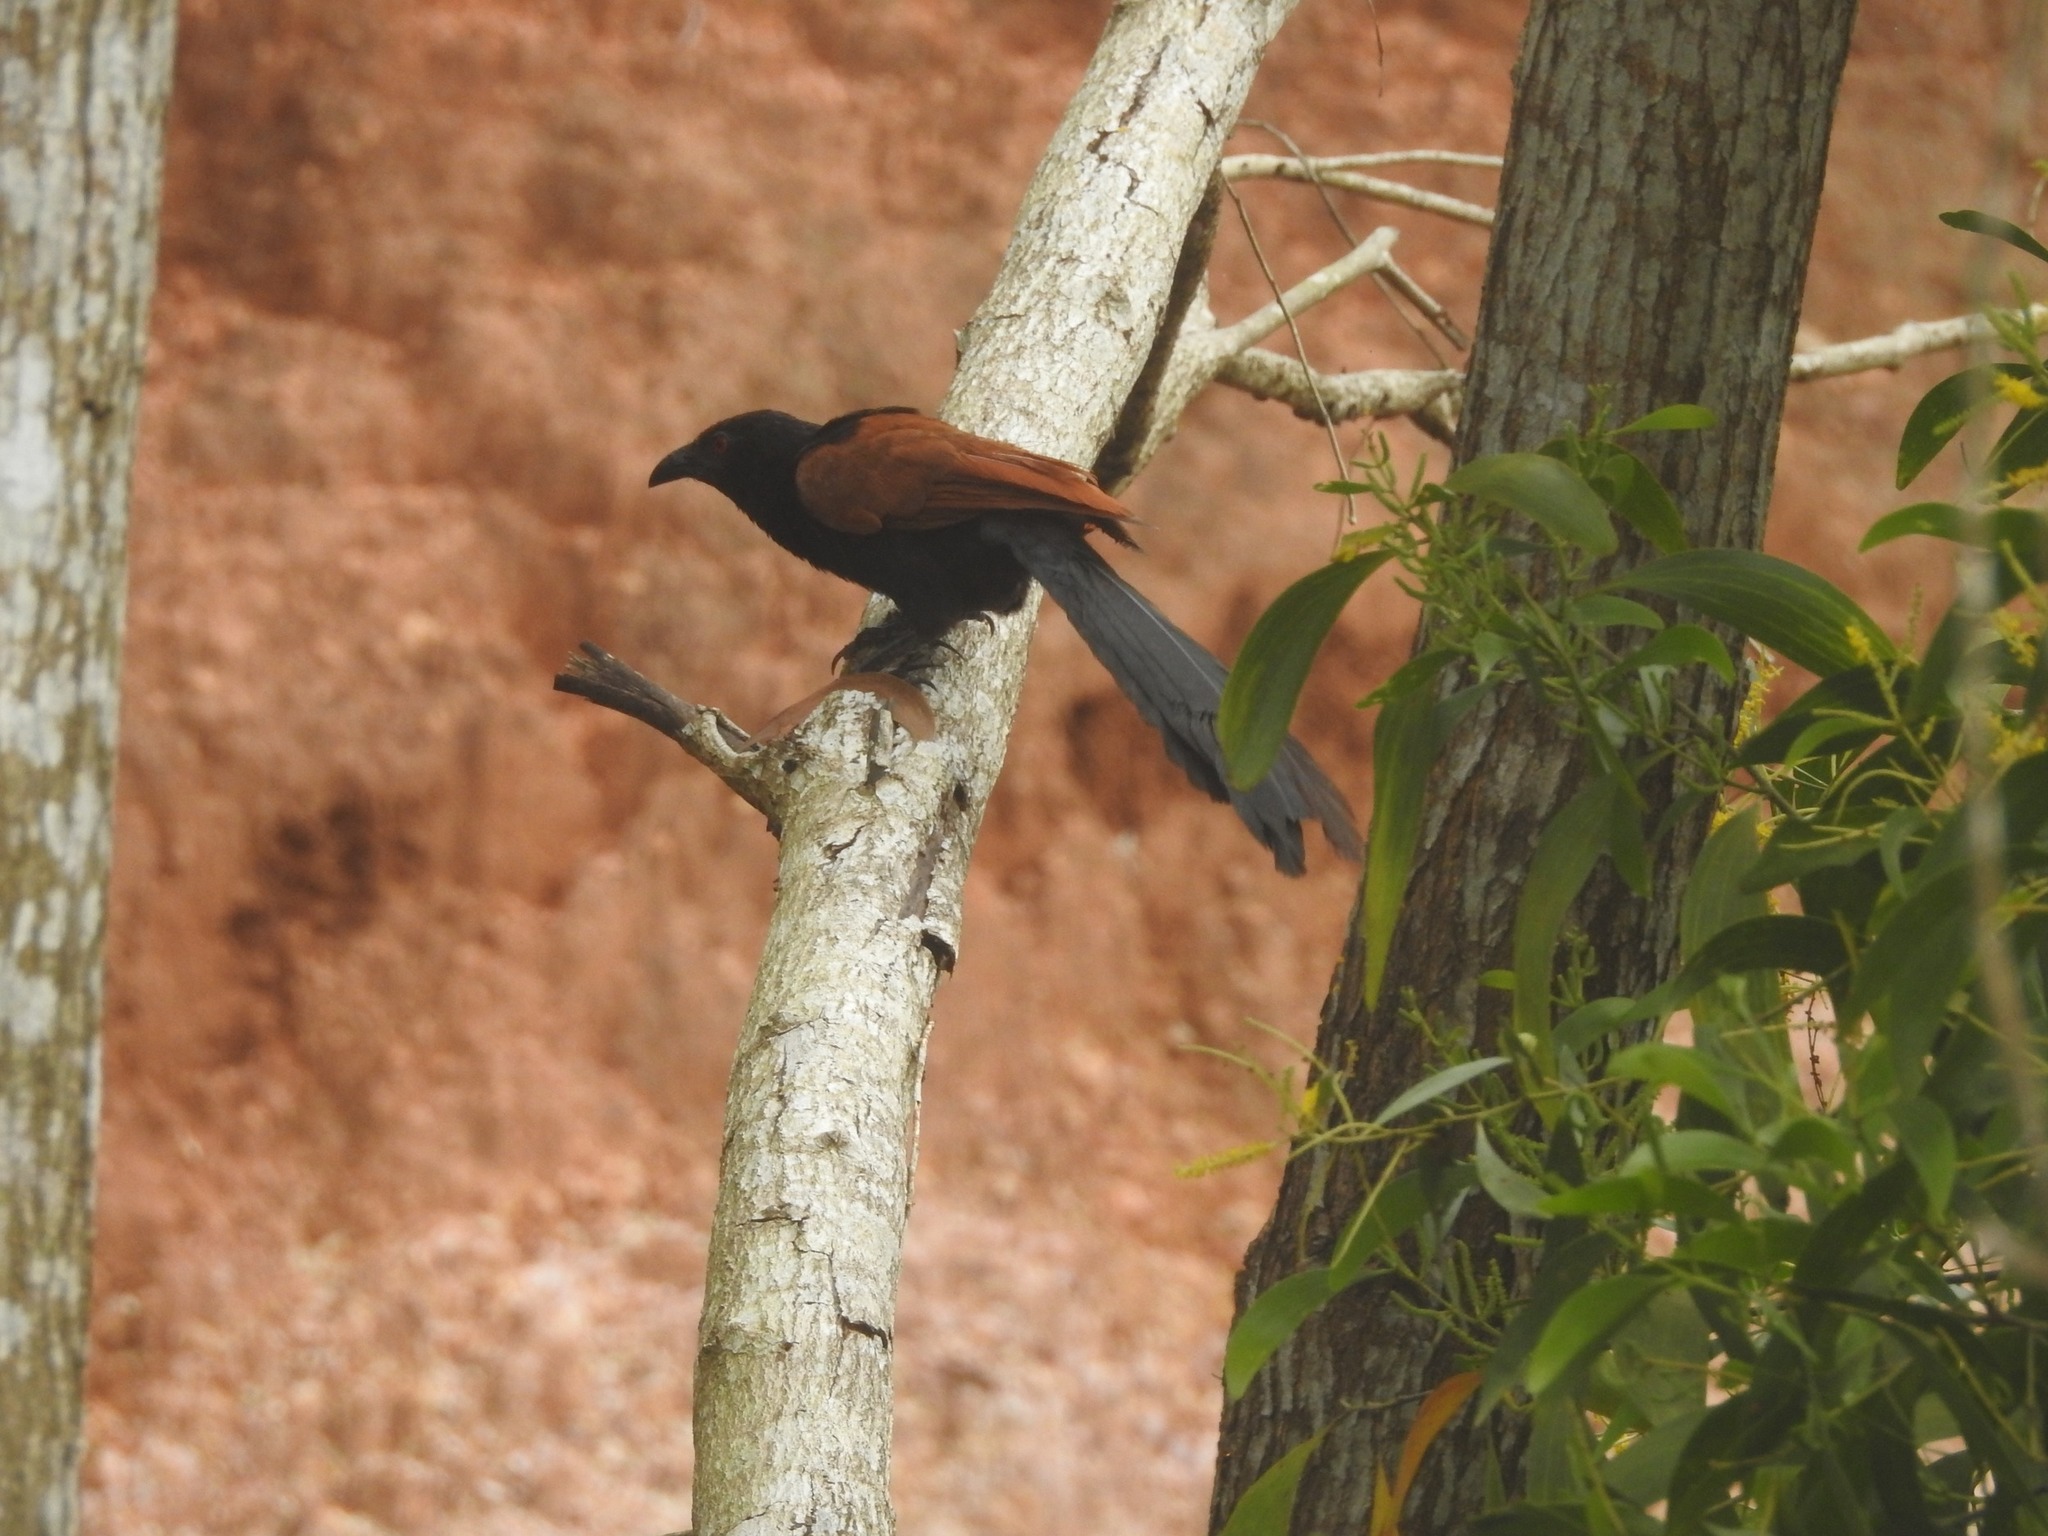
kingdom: Animalia
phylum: Chordata
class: Aves
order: Cuculiformes
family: Cuculidae
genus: Centropus
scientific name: Centropus sinensis
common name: Greater coucal
